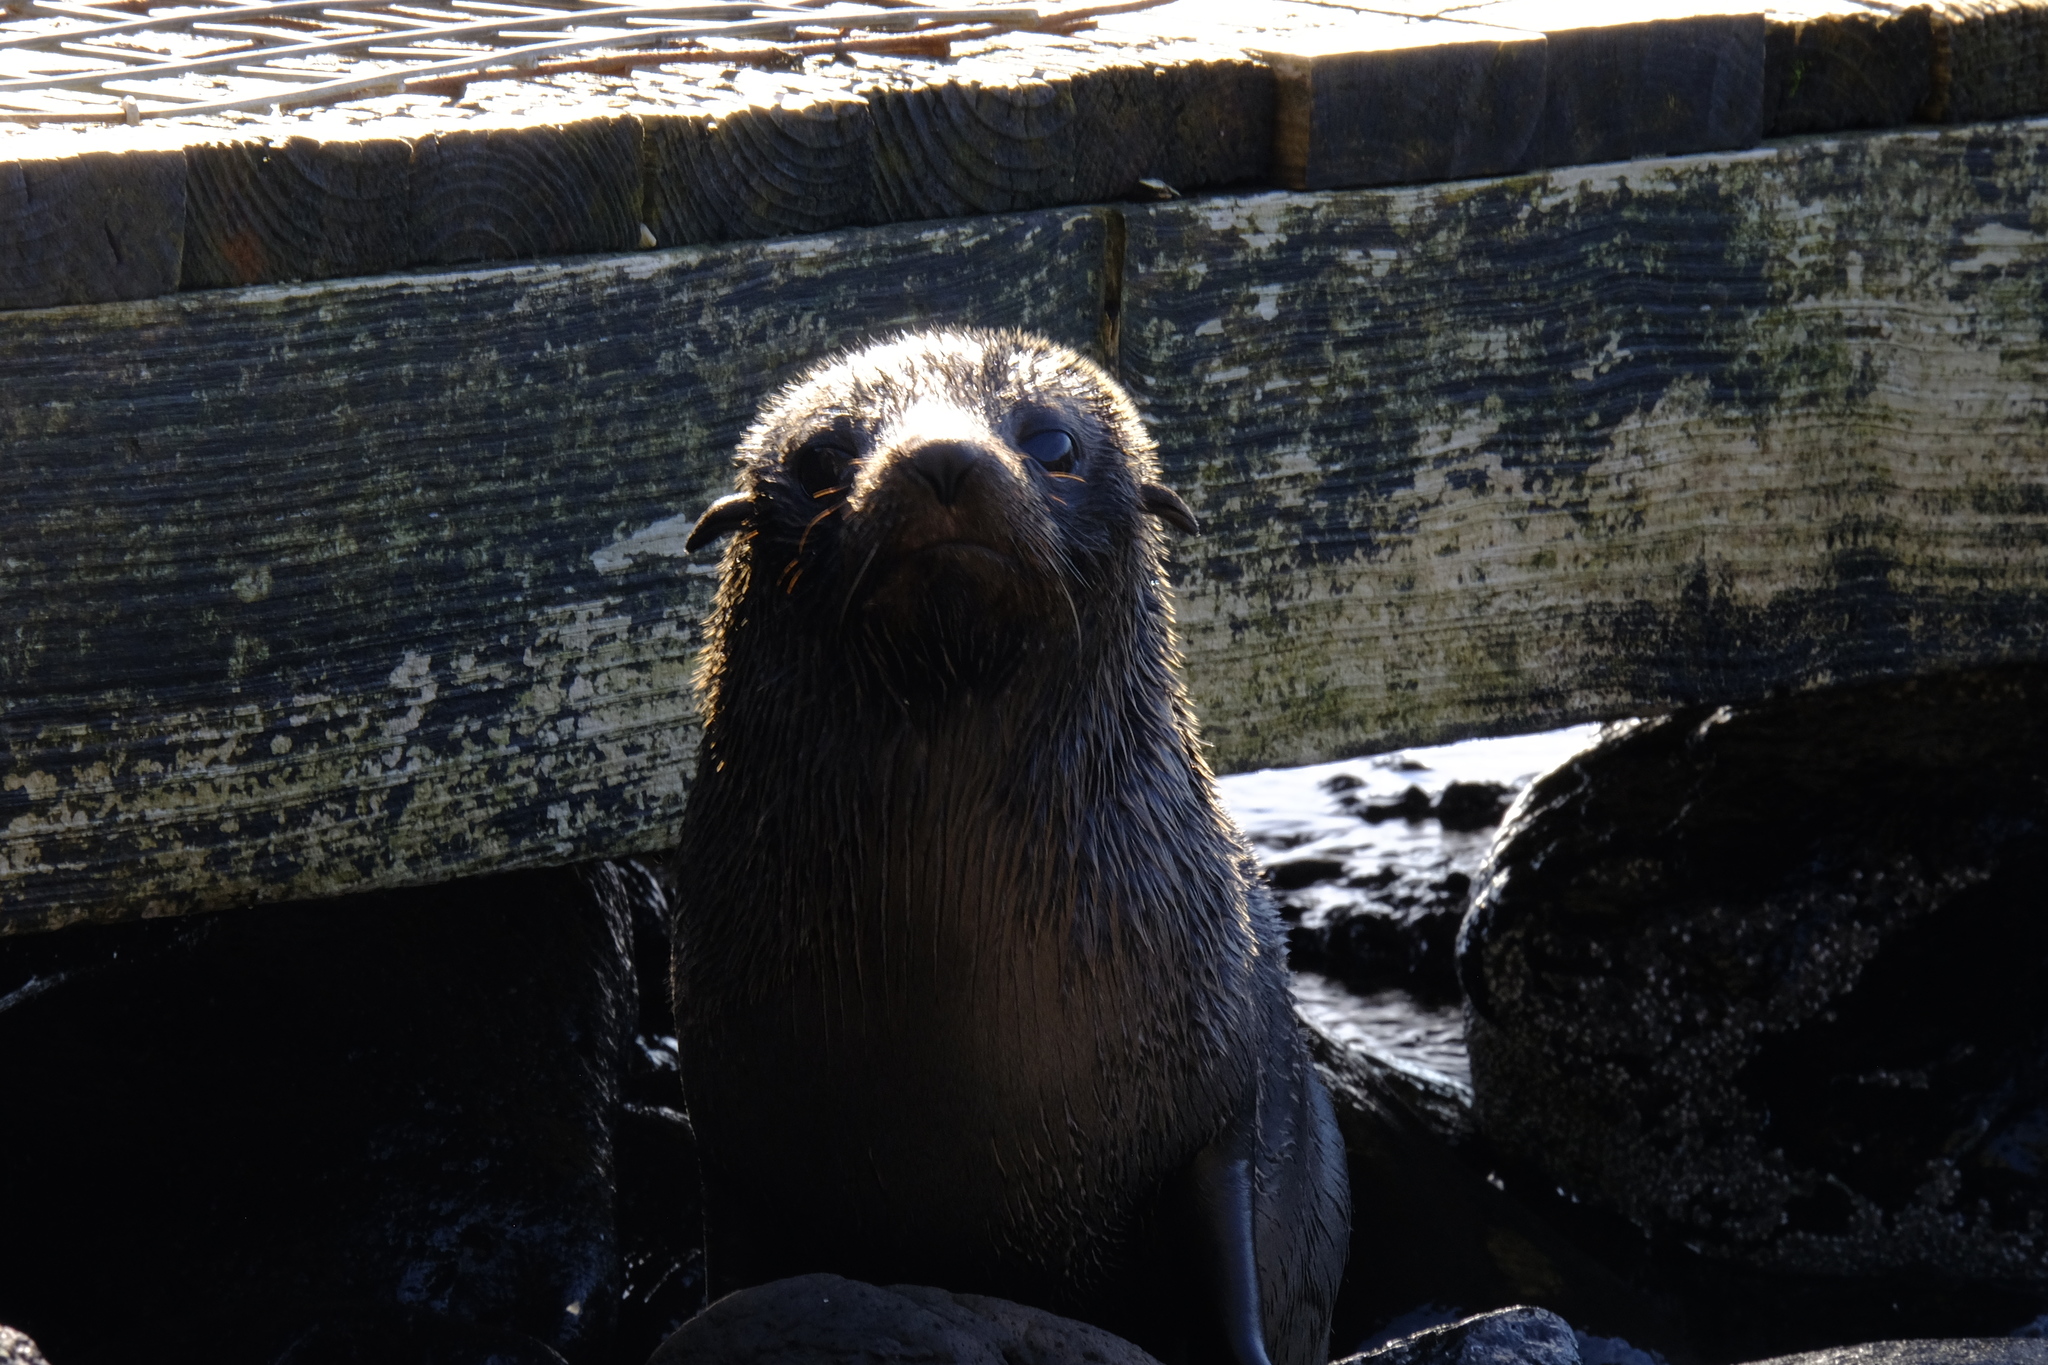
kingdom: Animalia
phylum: Chordata
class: Mammalia
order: Carnivora
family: Otariidae
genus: Arctocephalus
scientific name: Arctocephalus pusillus
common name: Brown fur seal
